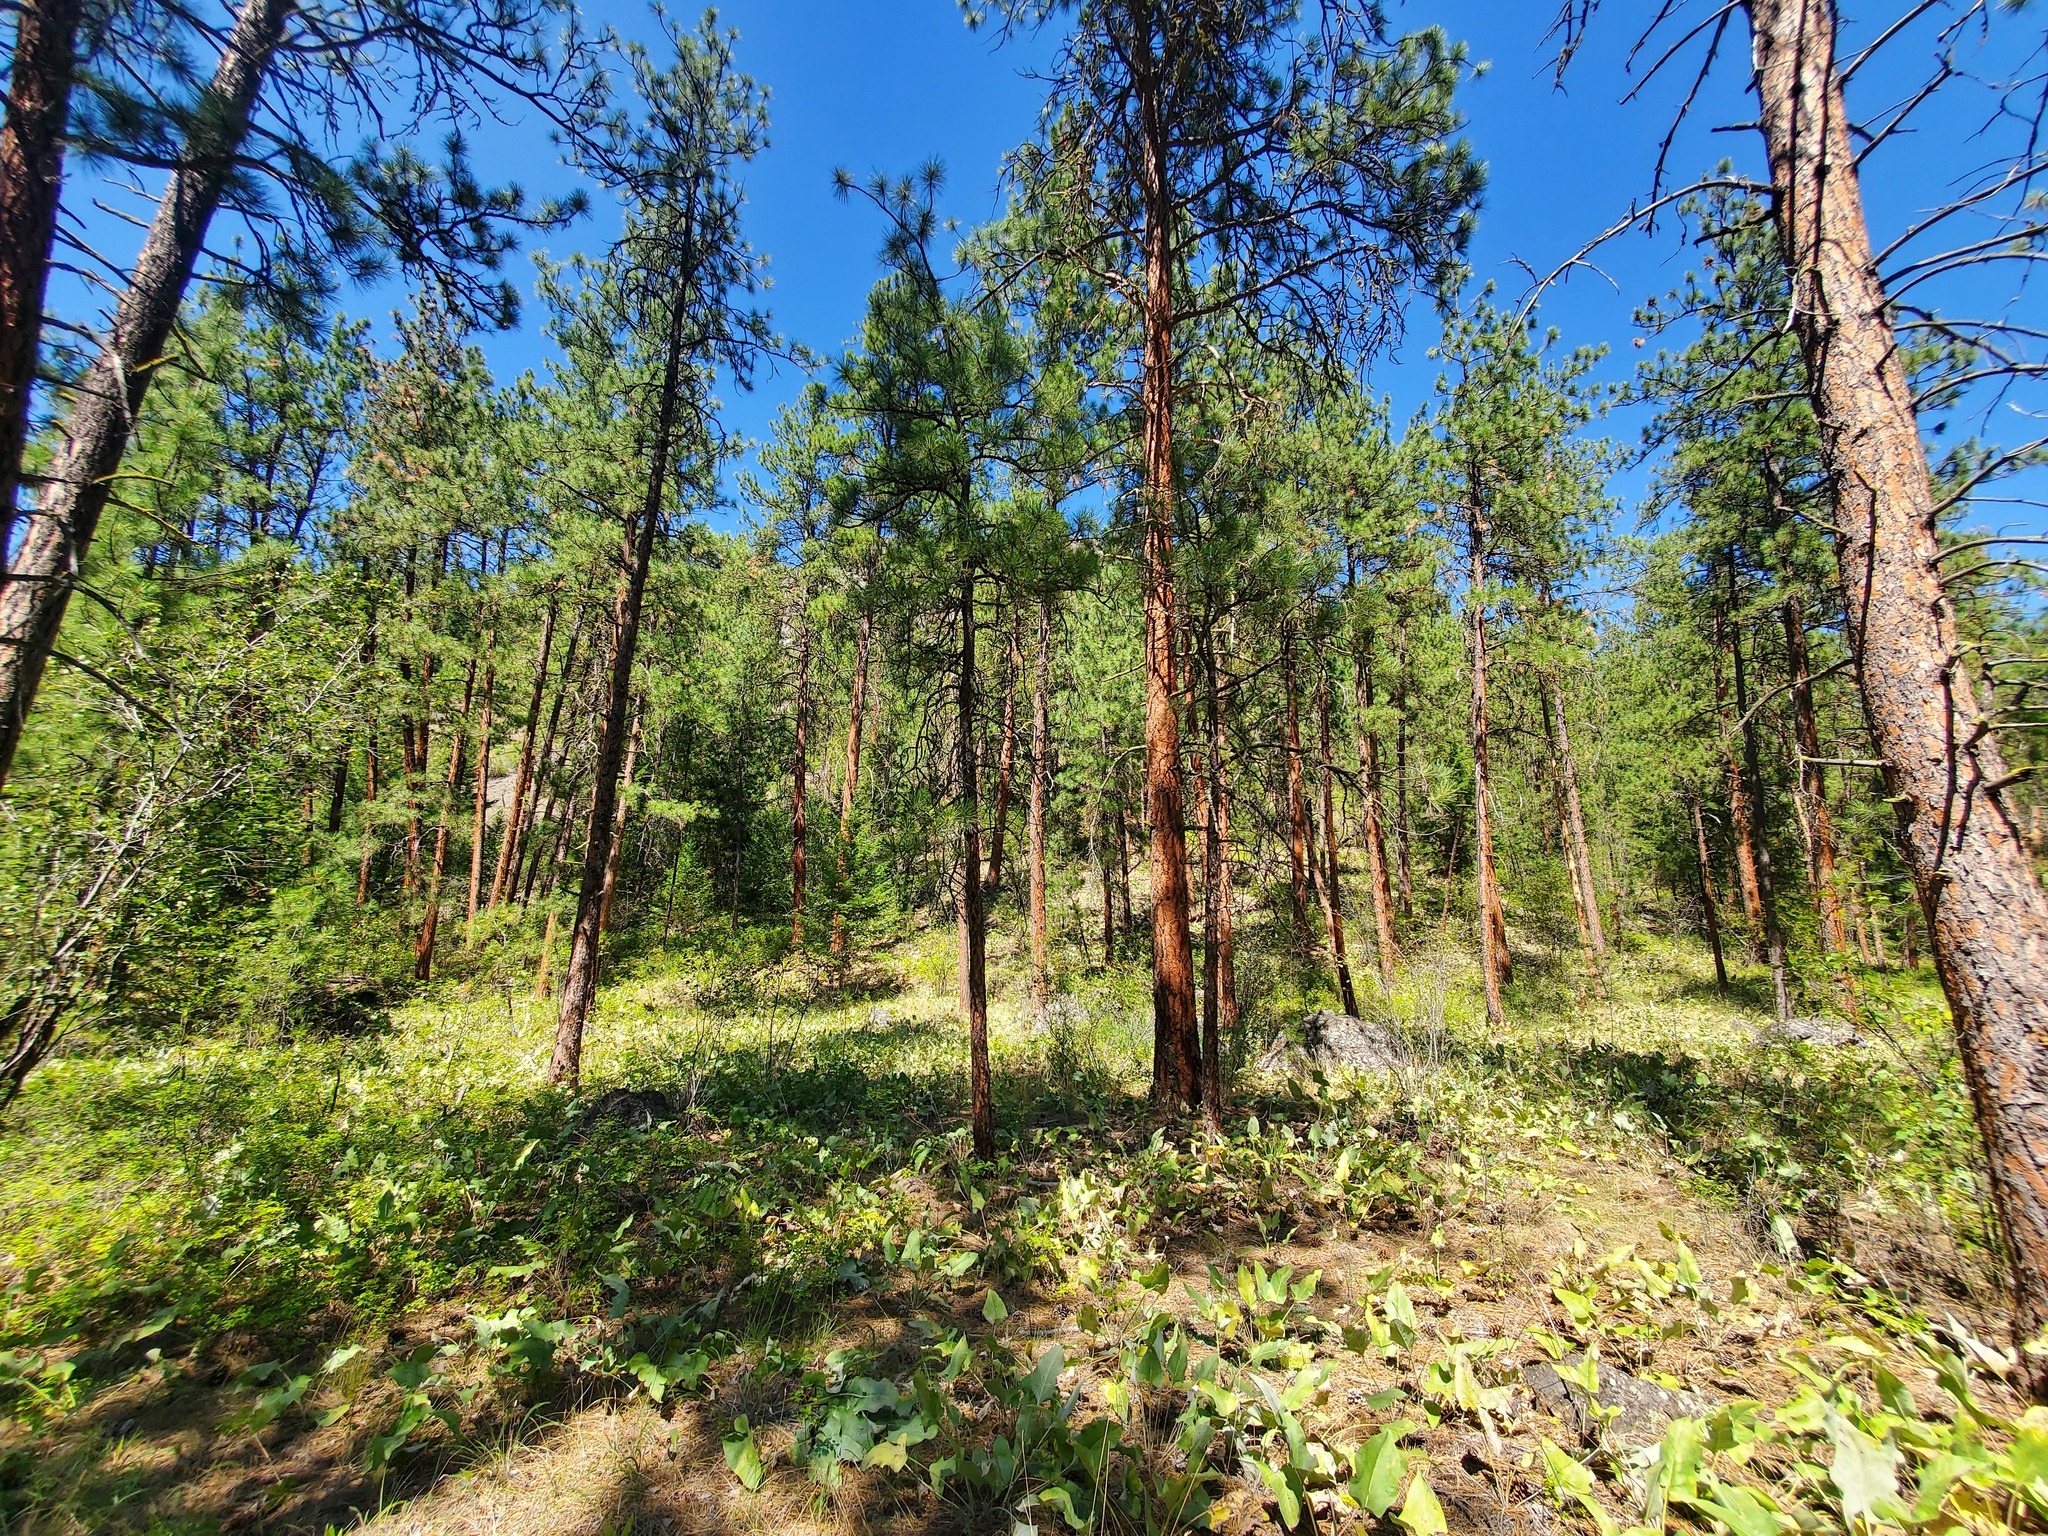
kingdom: Plantae
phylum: Tracheophyta
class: Magnoliopsida
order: Asterales
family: Asteraceae
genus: Wyethia
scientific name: Wyethia sagittata
